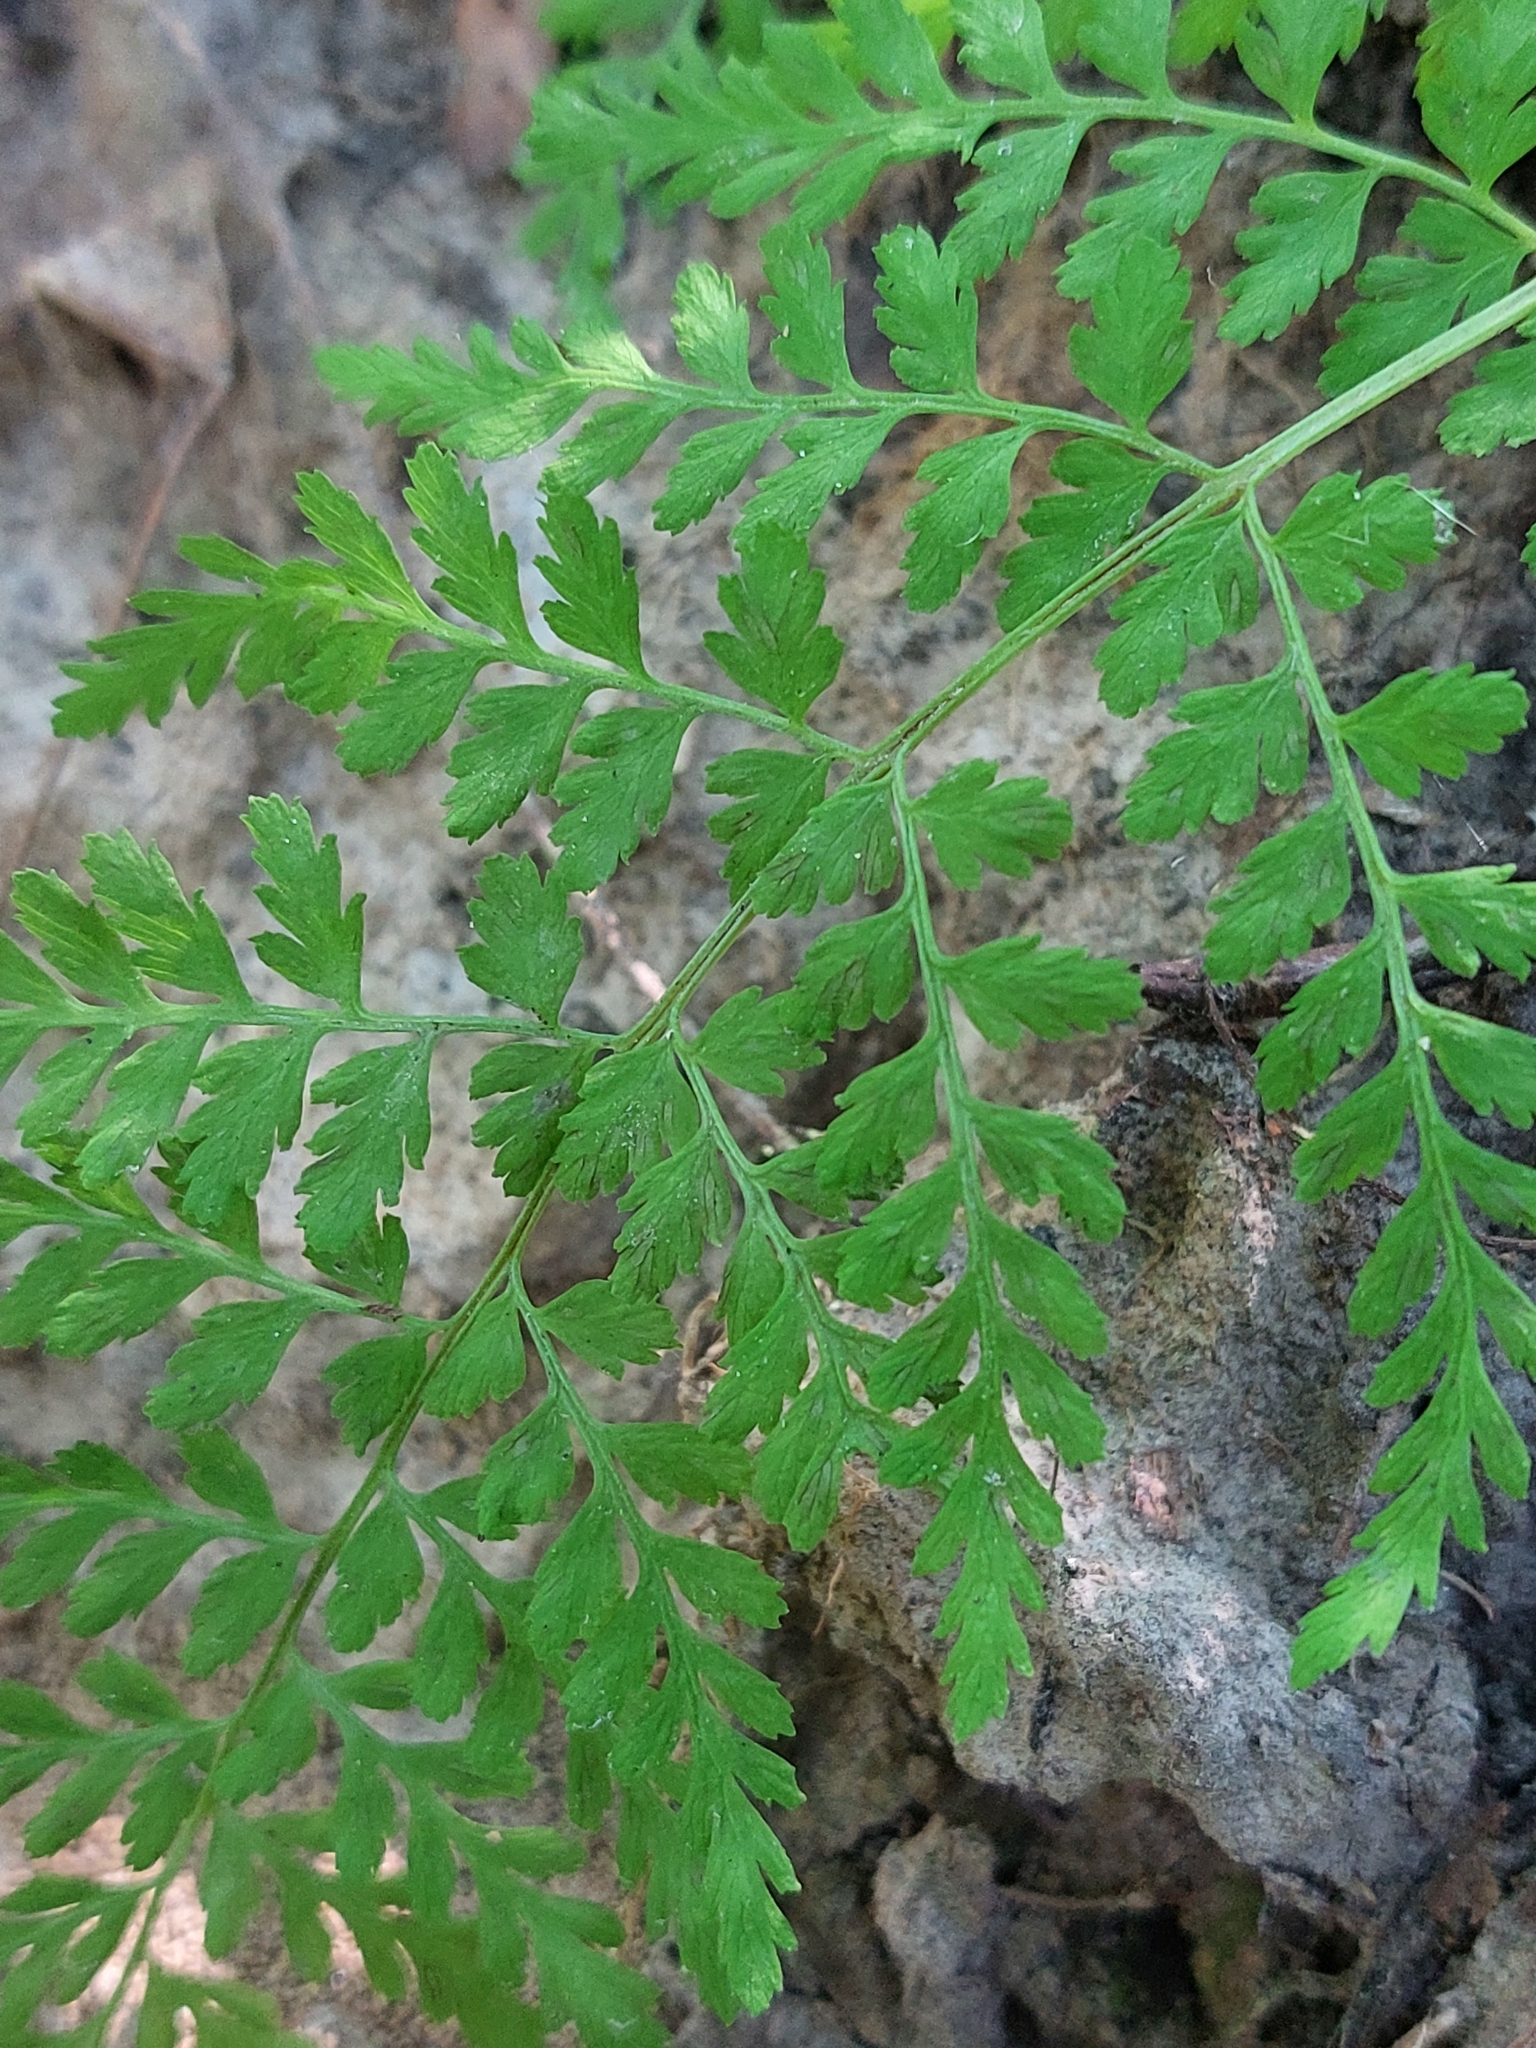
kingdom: Plantae
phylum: Tracheophyta
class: Polypodiopsida
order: Polypodiales
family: Cystopteridaceae
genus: Cystopteris
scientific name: Cystopteris fragilis
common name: Brittle bladder fern
